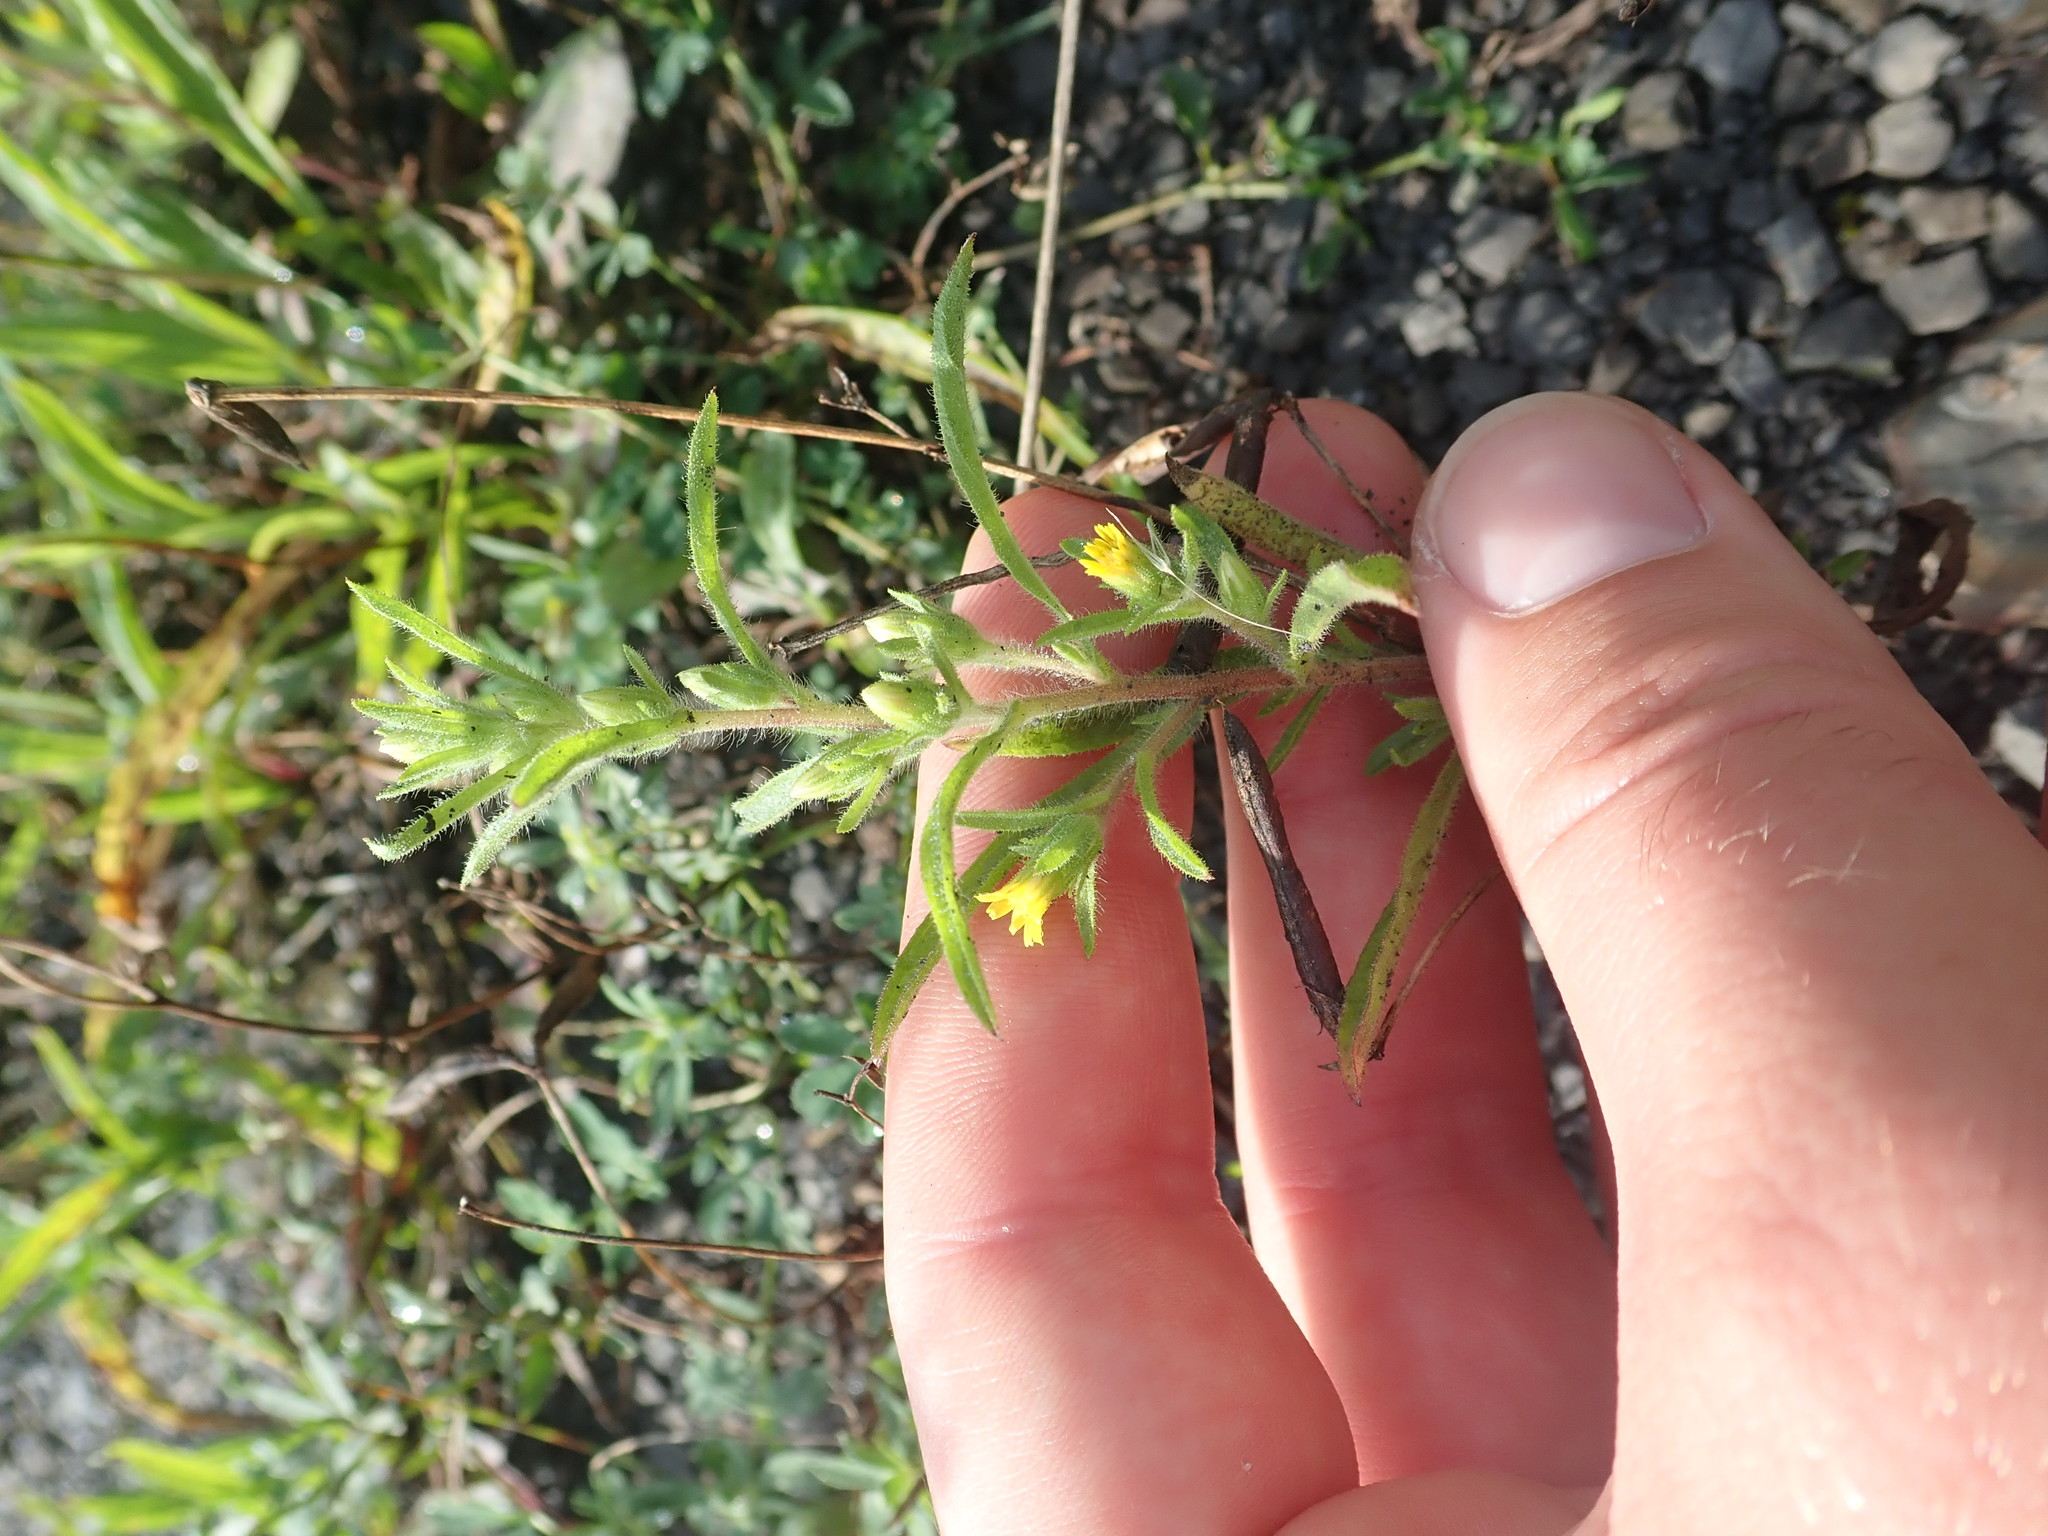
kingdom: Plantae
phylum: Tracheophyta
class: Magnoliopsida
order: Asterales
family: Asteraceae
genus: Dittrichia
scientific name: Dittrichia graveolens
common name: Stinking fleabane
